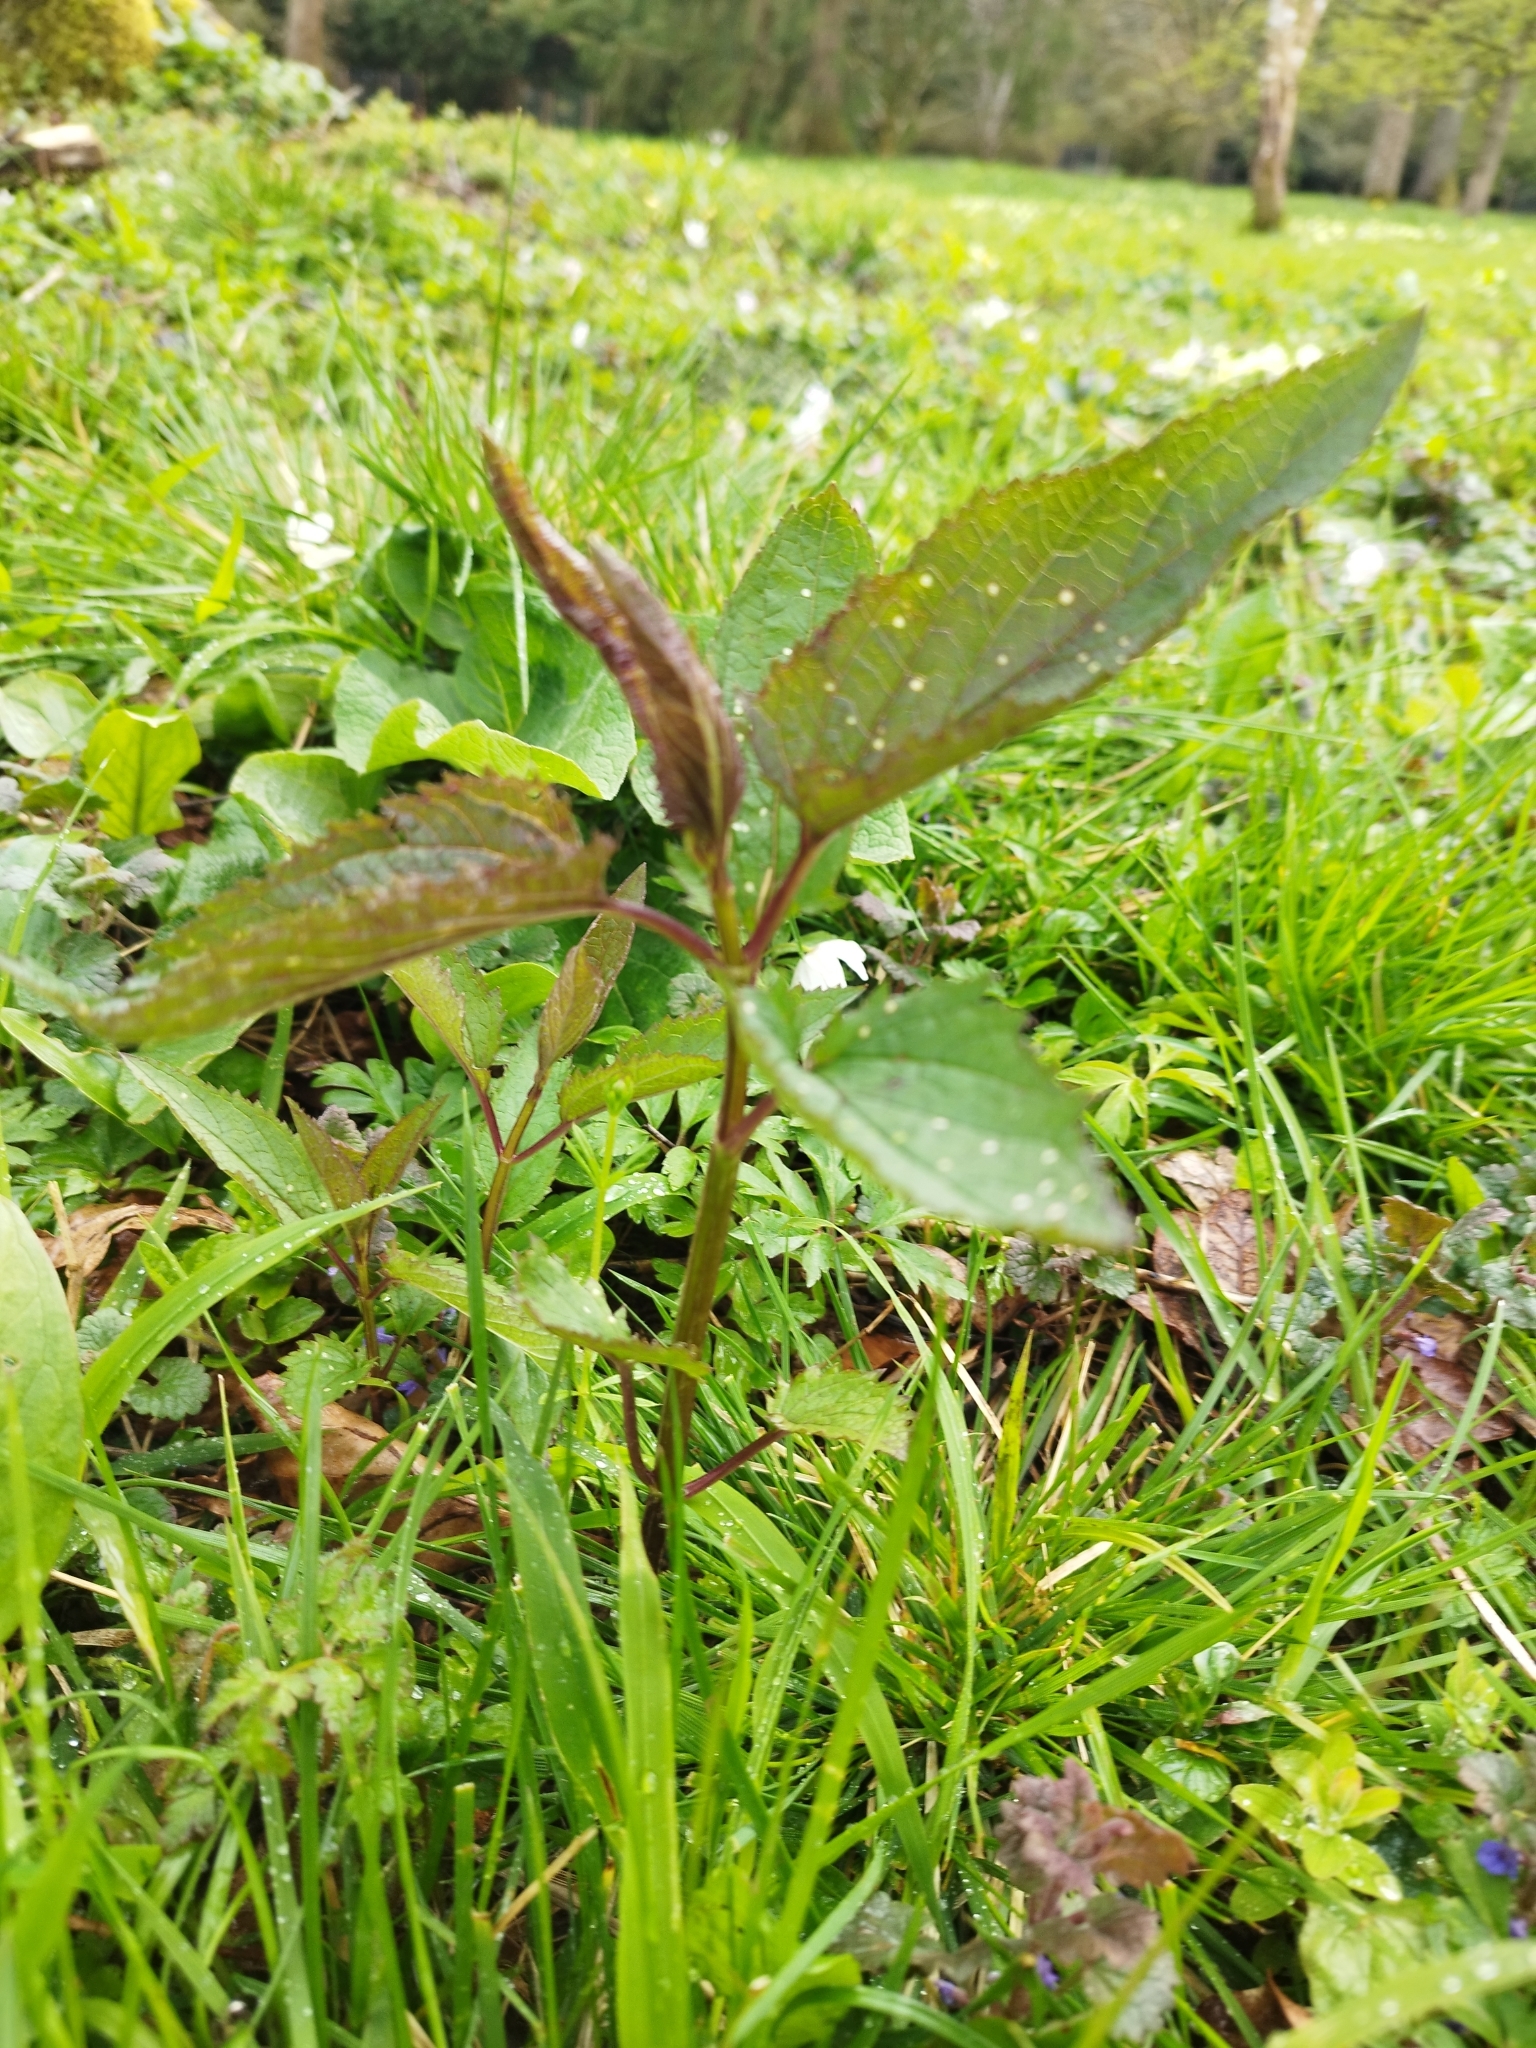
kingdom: Plantae
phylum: Tracheophyta
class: Magnoliopsida
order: Lamiales
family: Scrophulariaceae
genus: Scrophularia
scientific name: Scrophularia nodosa
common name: Common figwort
